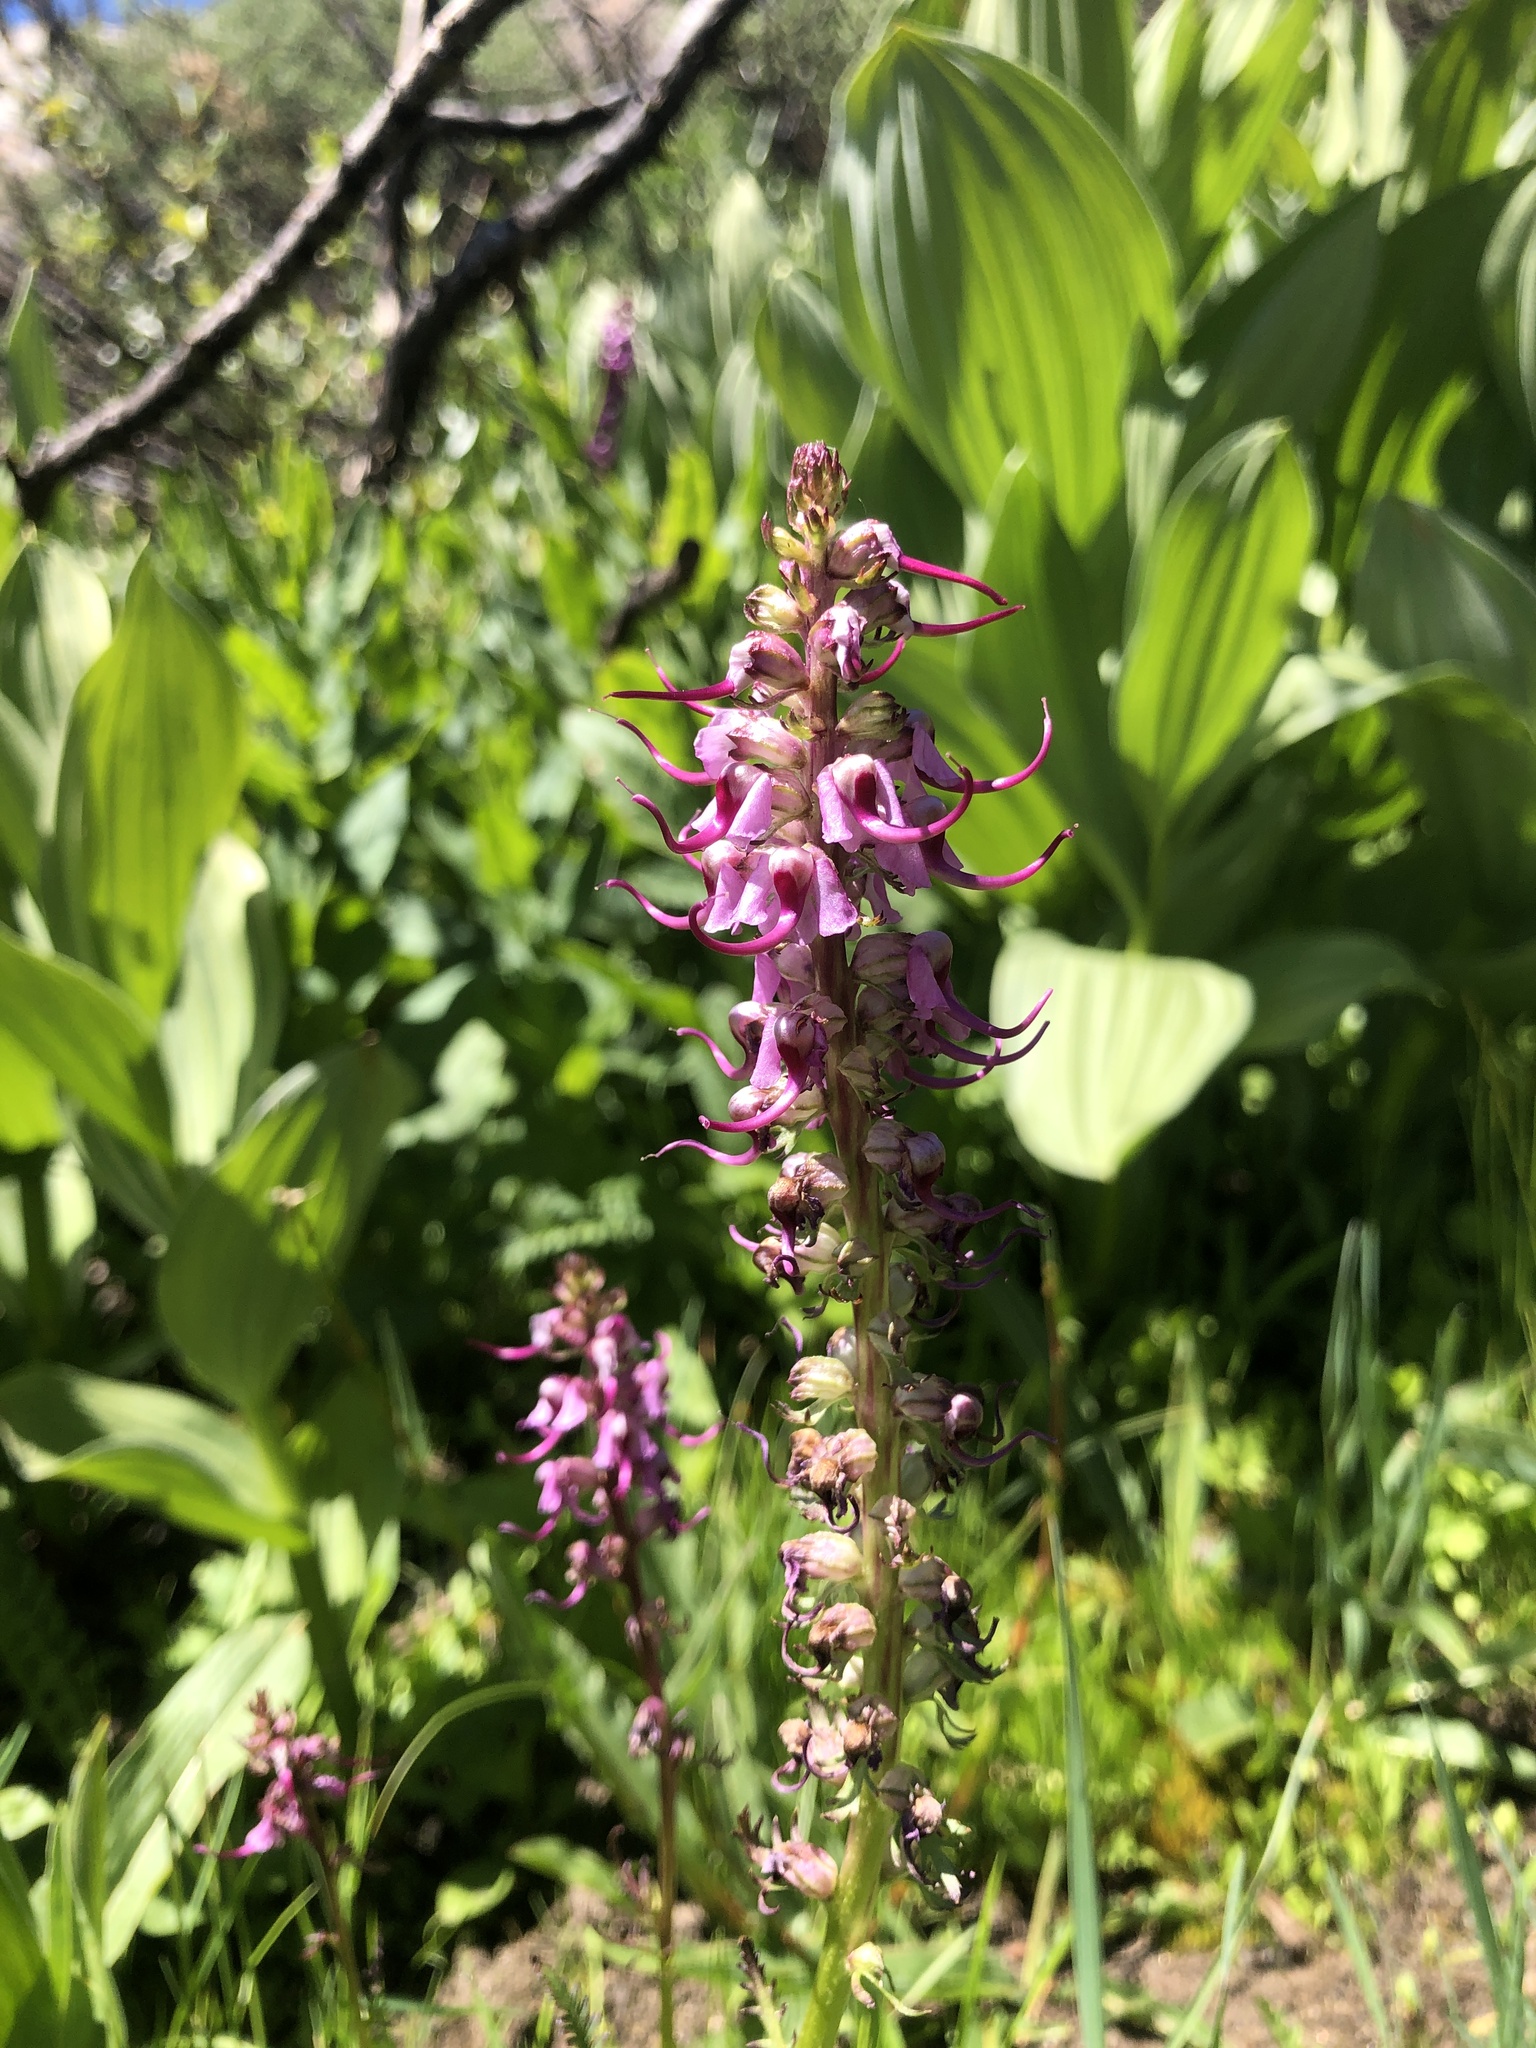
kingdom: Plantae
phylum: Tracheophyta
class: Magnoliopsida
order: Lamiales
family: Orobanchaceae
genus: Pedicularis
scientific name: Pedicularis groenlandica
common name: Elephant's-head
